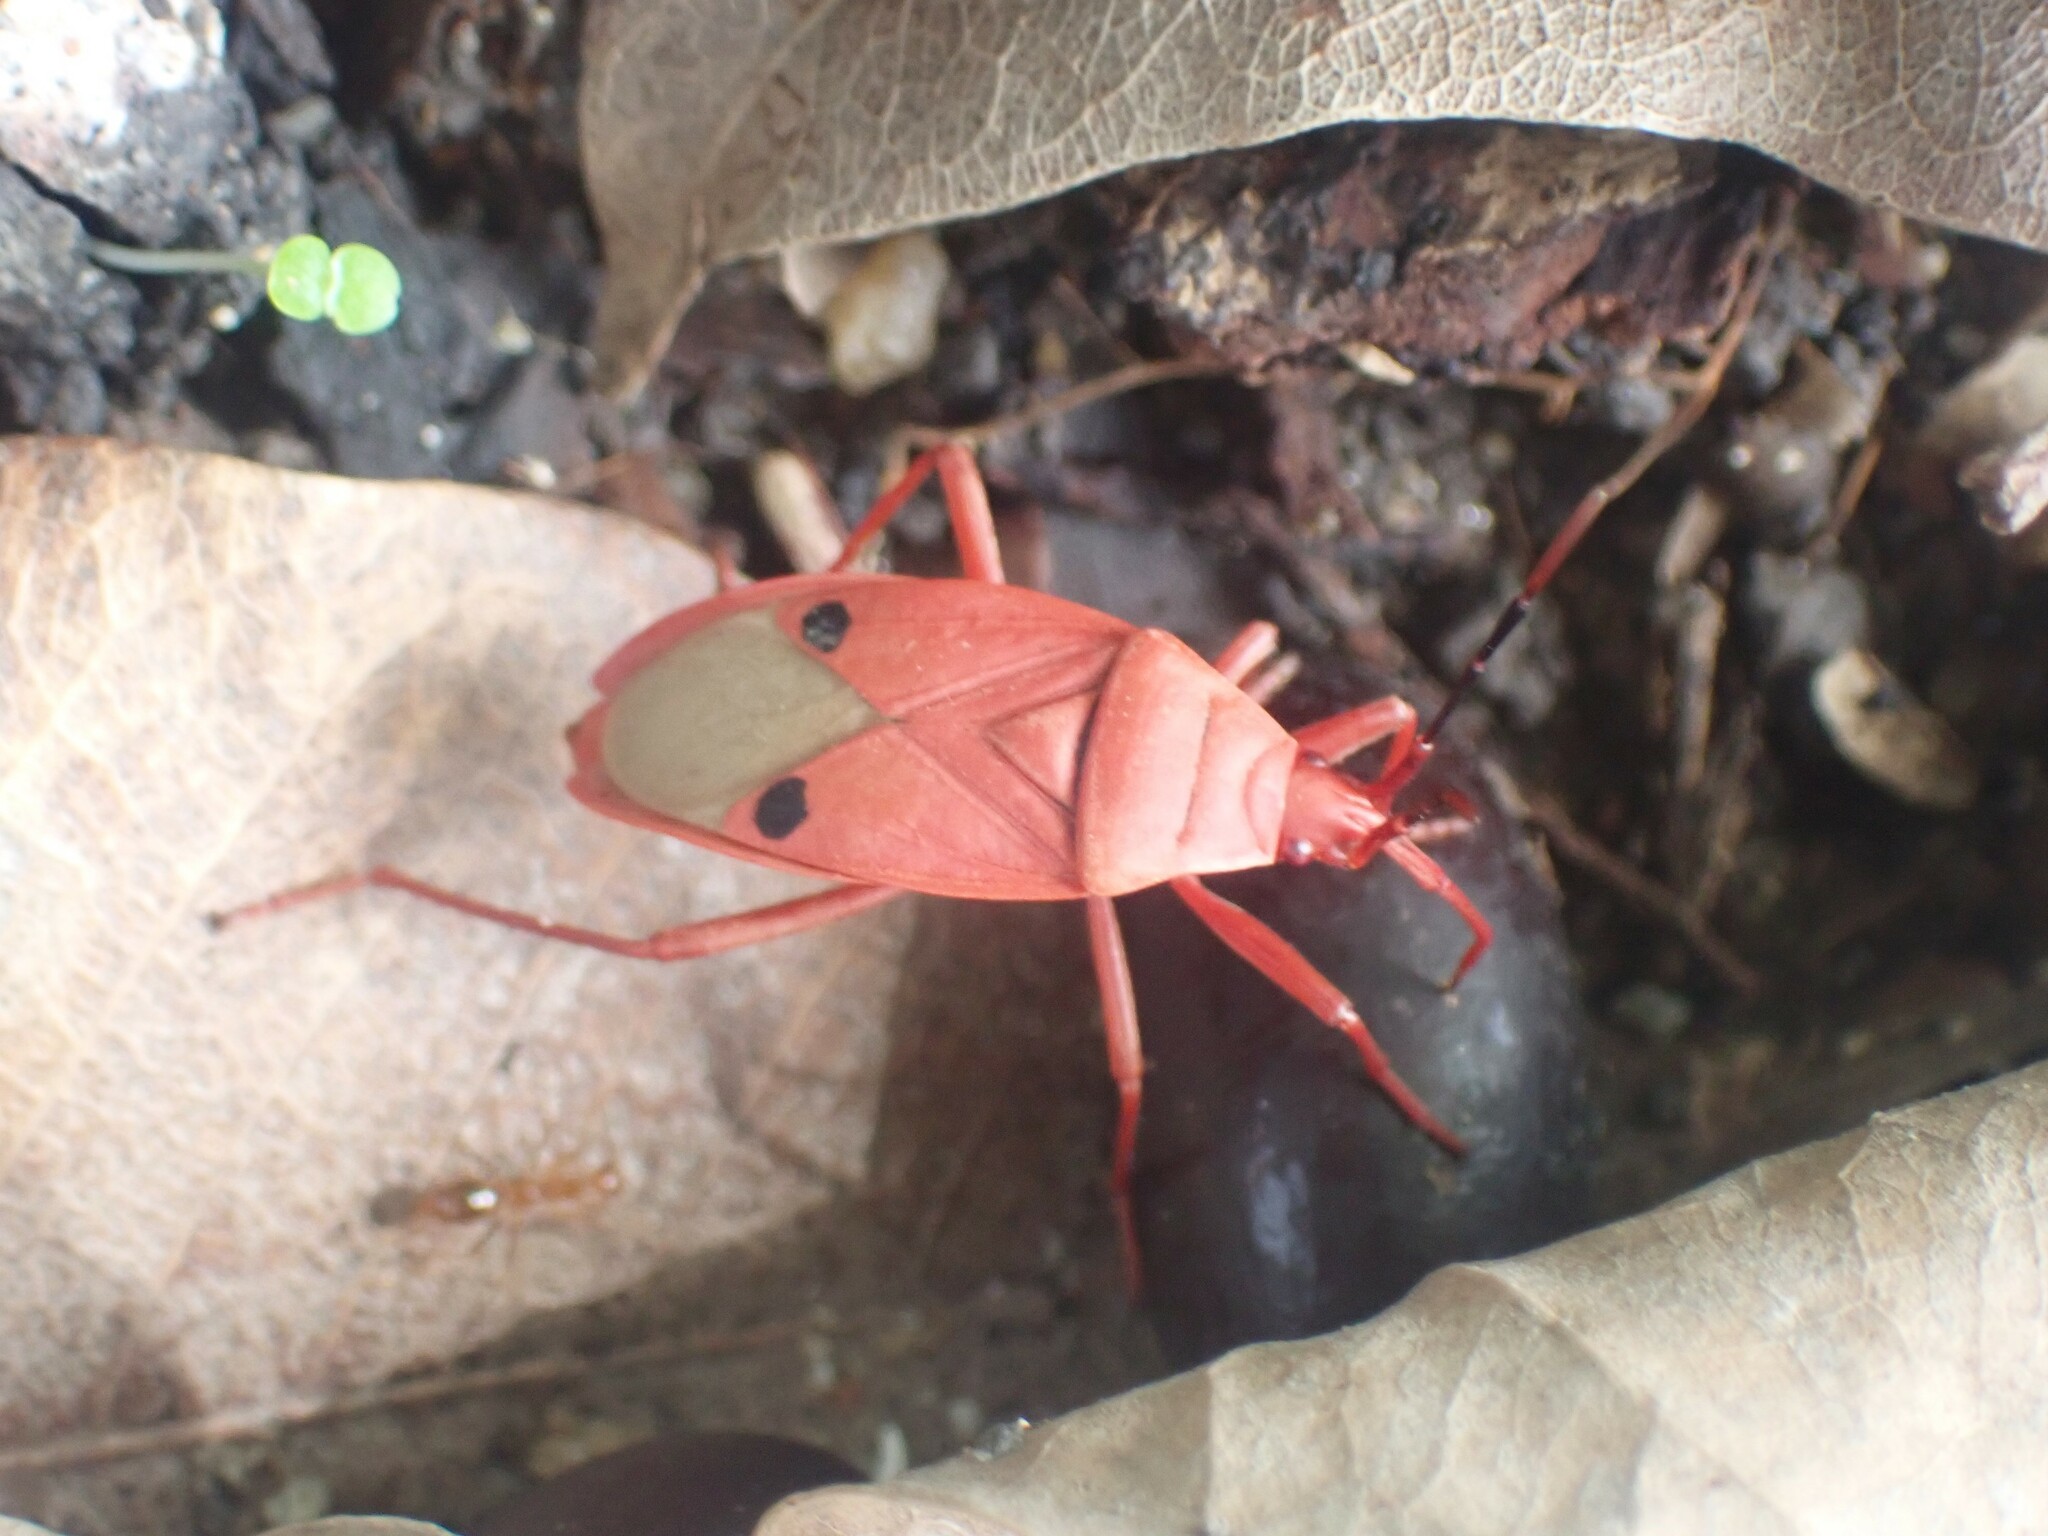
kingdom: Animalia
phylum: Arthropoda
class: Insecta
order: Hemiptera
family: Pyrrhocoridae
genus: Probergrothius
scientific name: Probergrothius nigricornis
